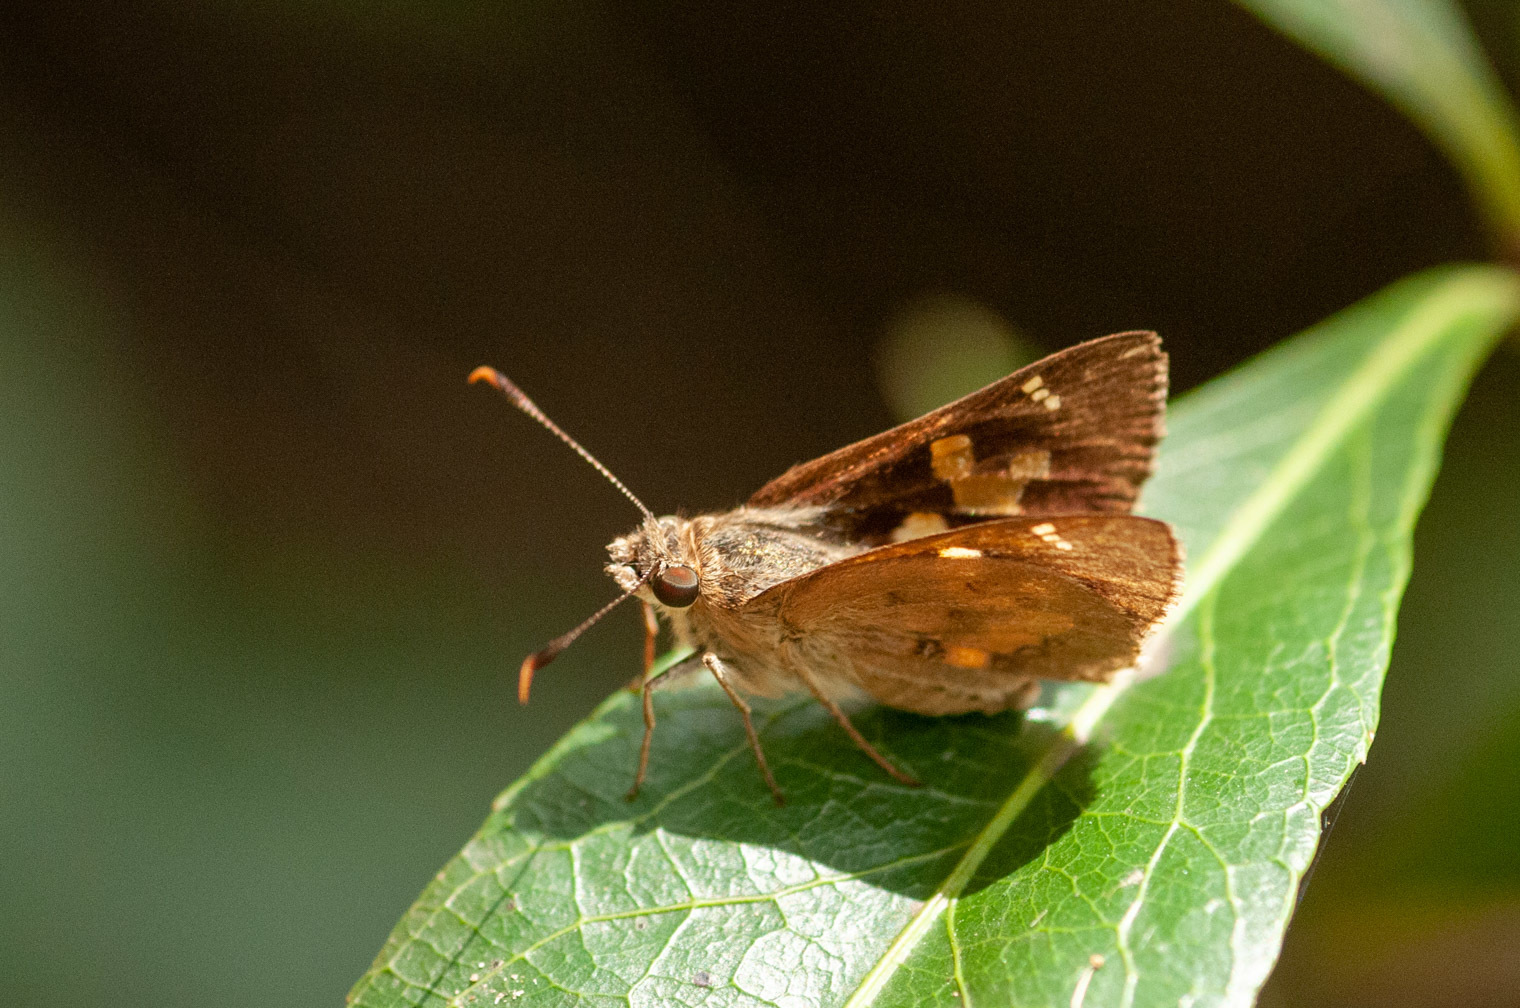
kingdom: Animalia
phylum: Arthropoda
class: Insecta
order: Lepidoptera
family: Hesperiidae
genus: Trapezites
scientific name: Trapezites maheta
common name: Northern silver ochre
